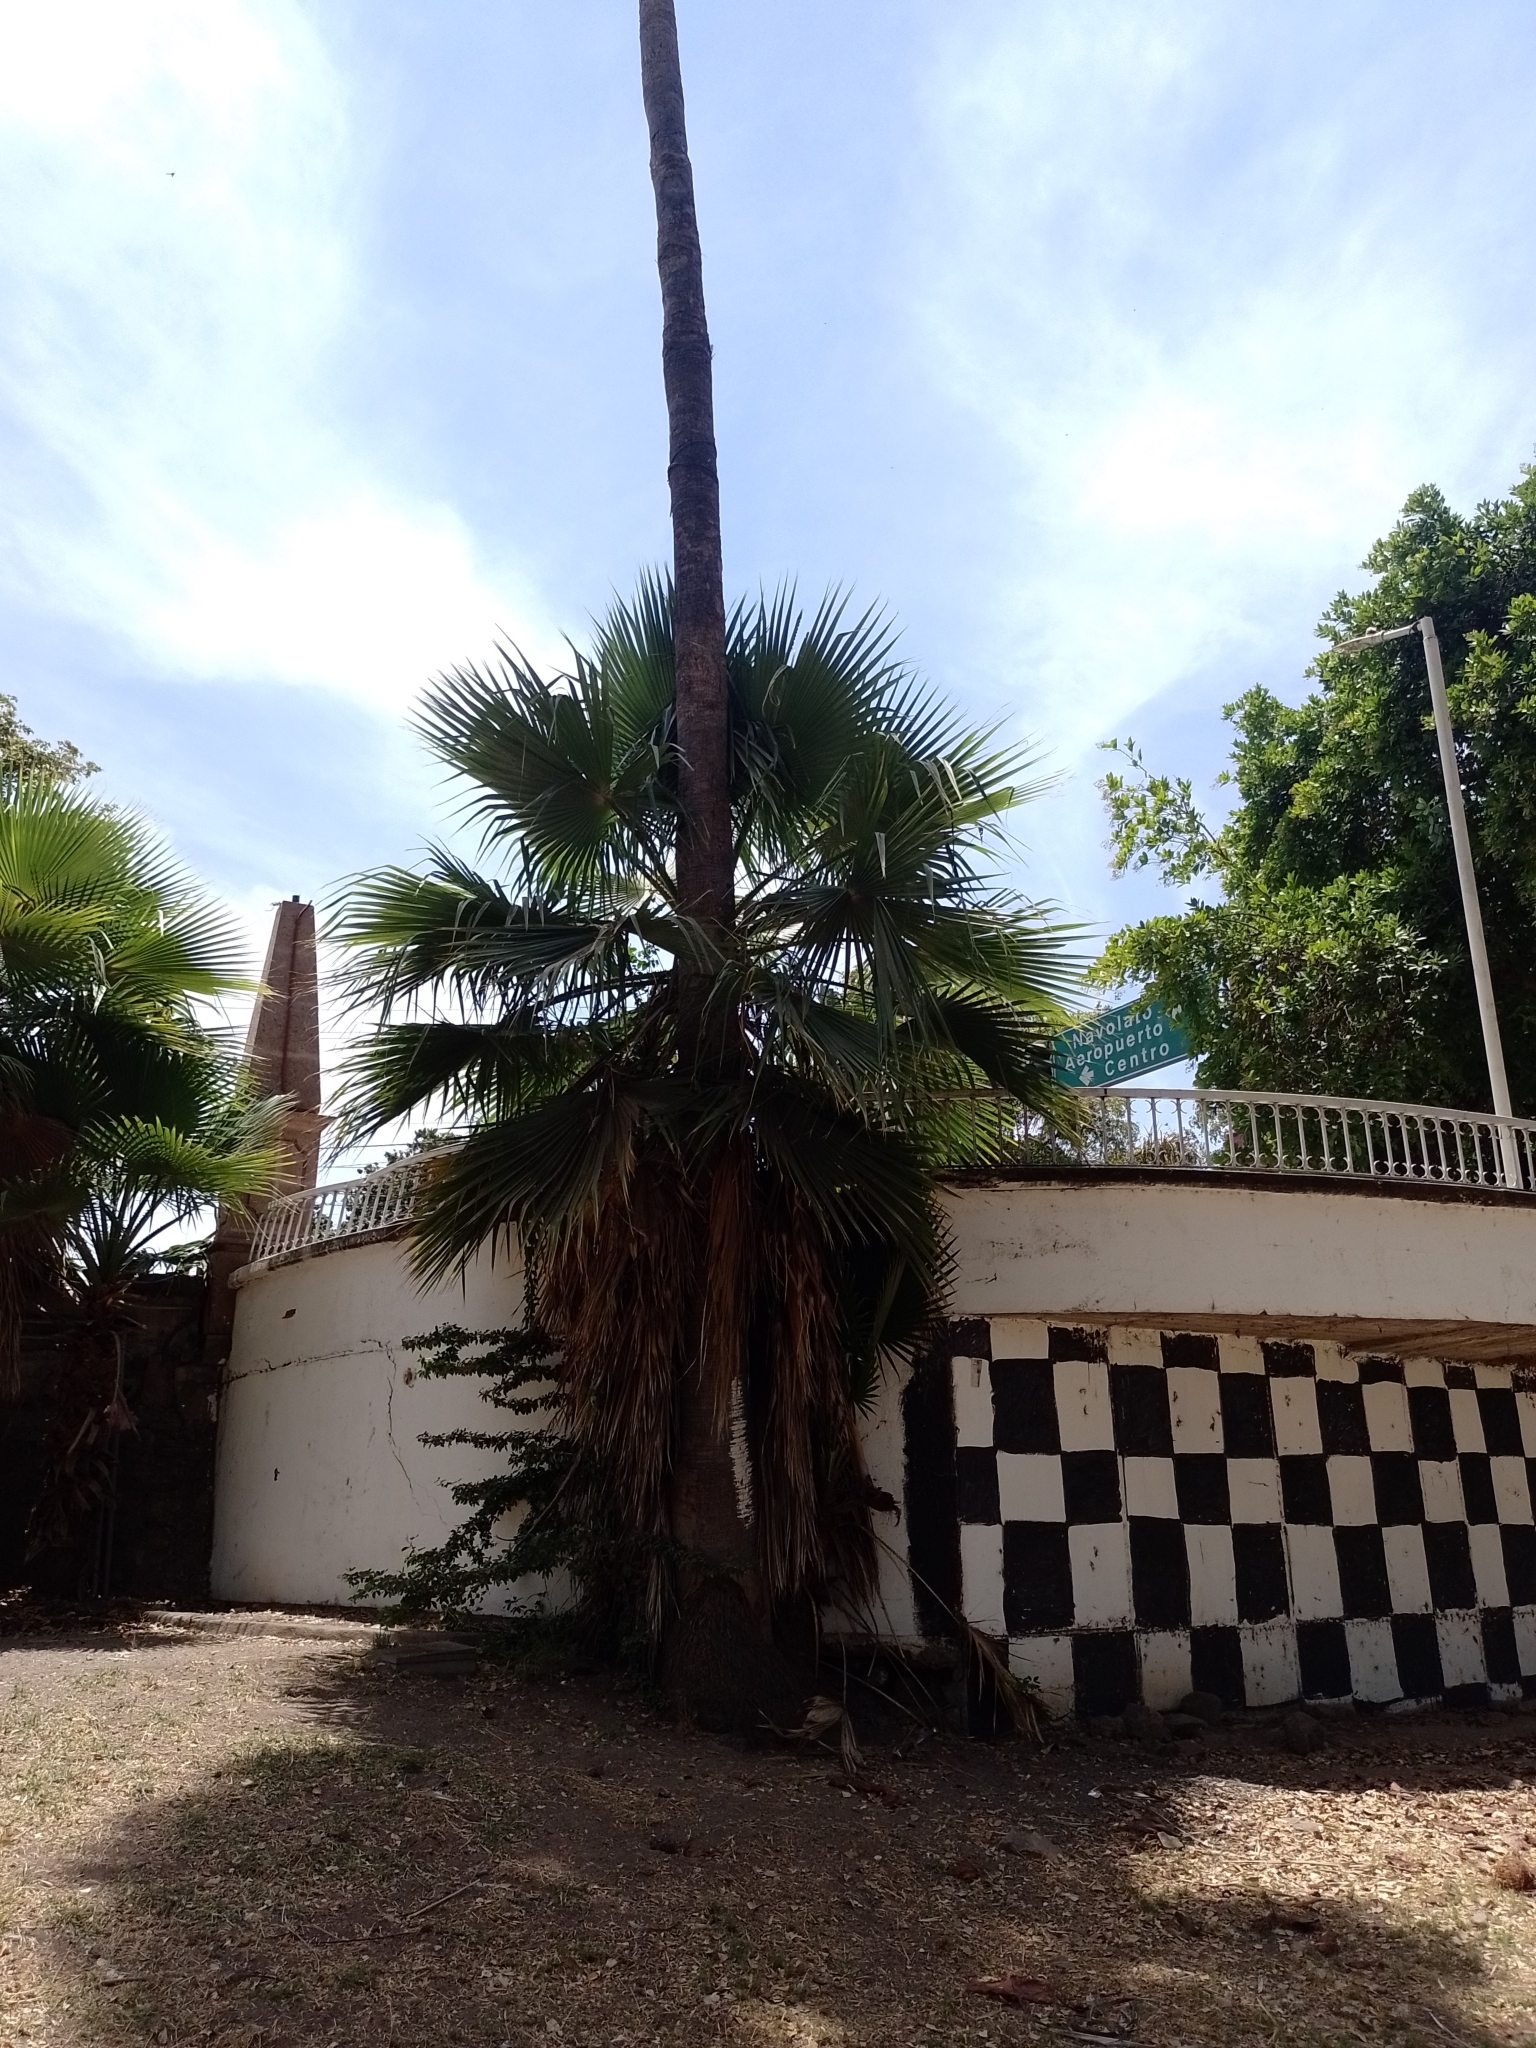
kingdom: Plantae
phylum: Tracheophyta
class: Liliopsida
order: Arecales
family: Arecaceae
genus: Washingtonia
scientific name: Washingtonia robusta
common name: Mexican fan palm
